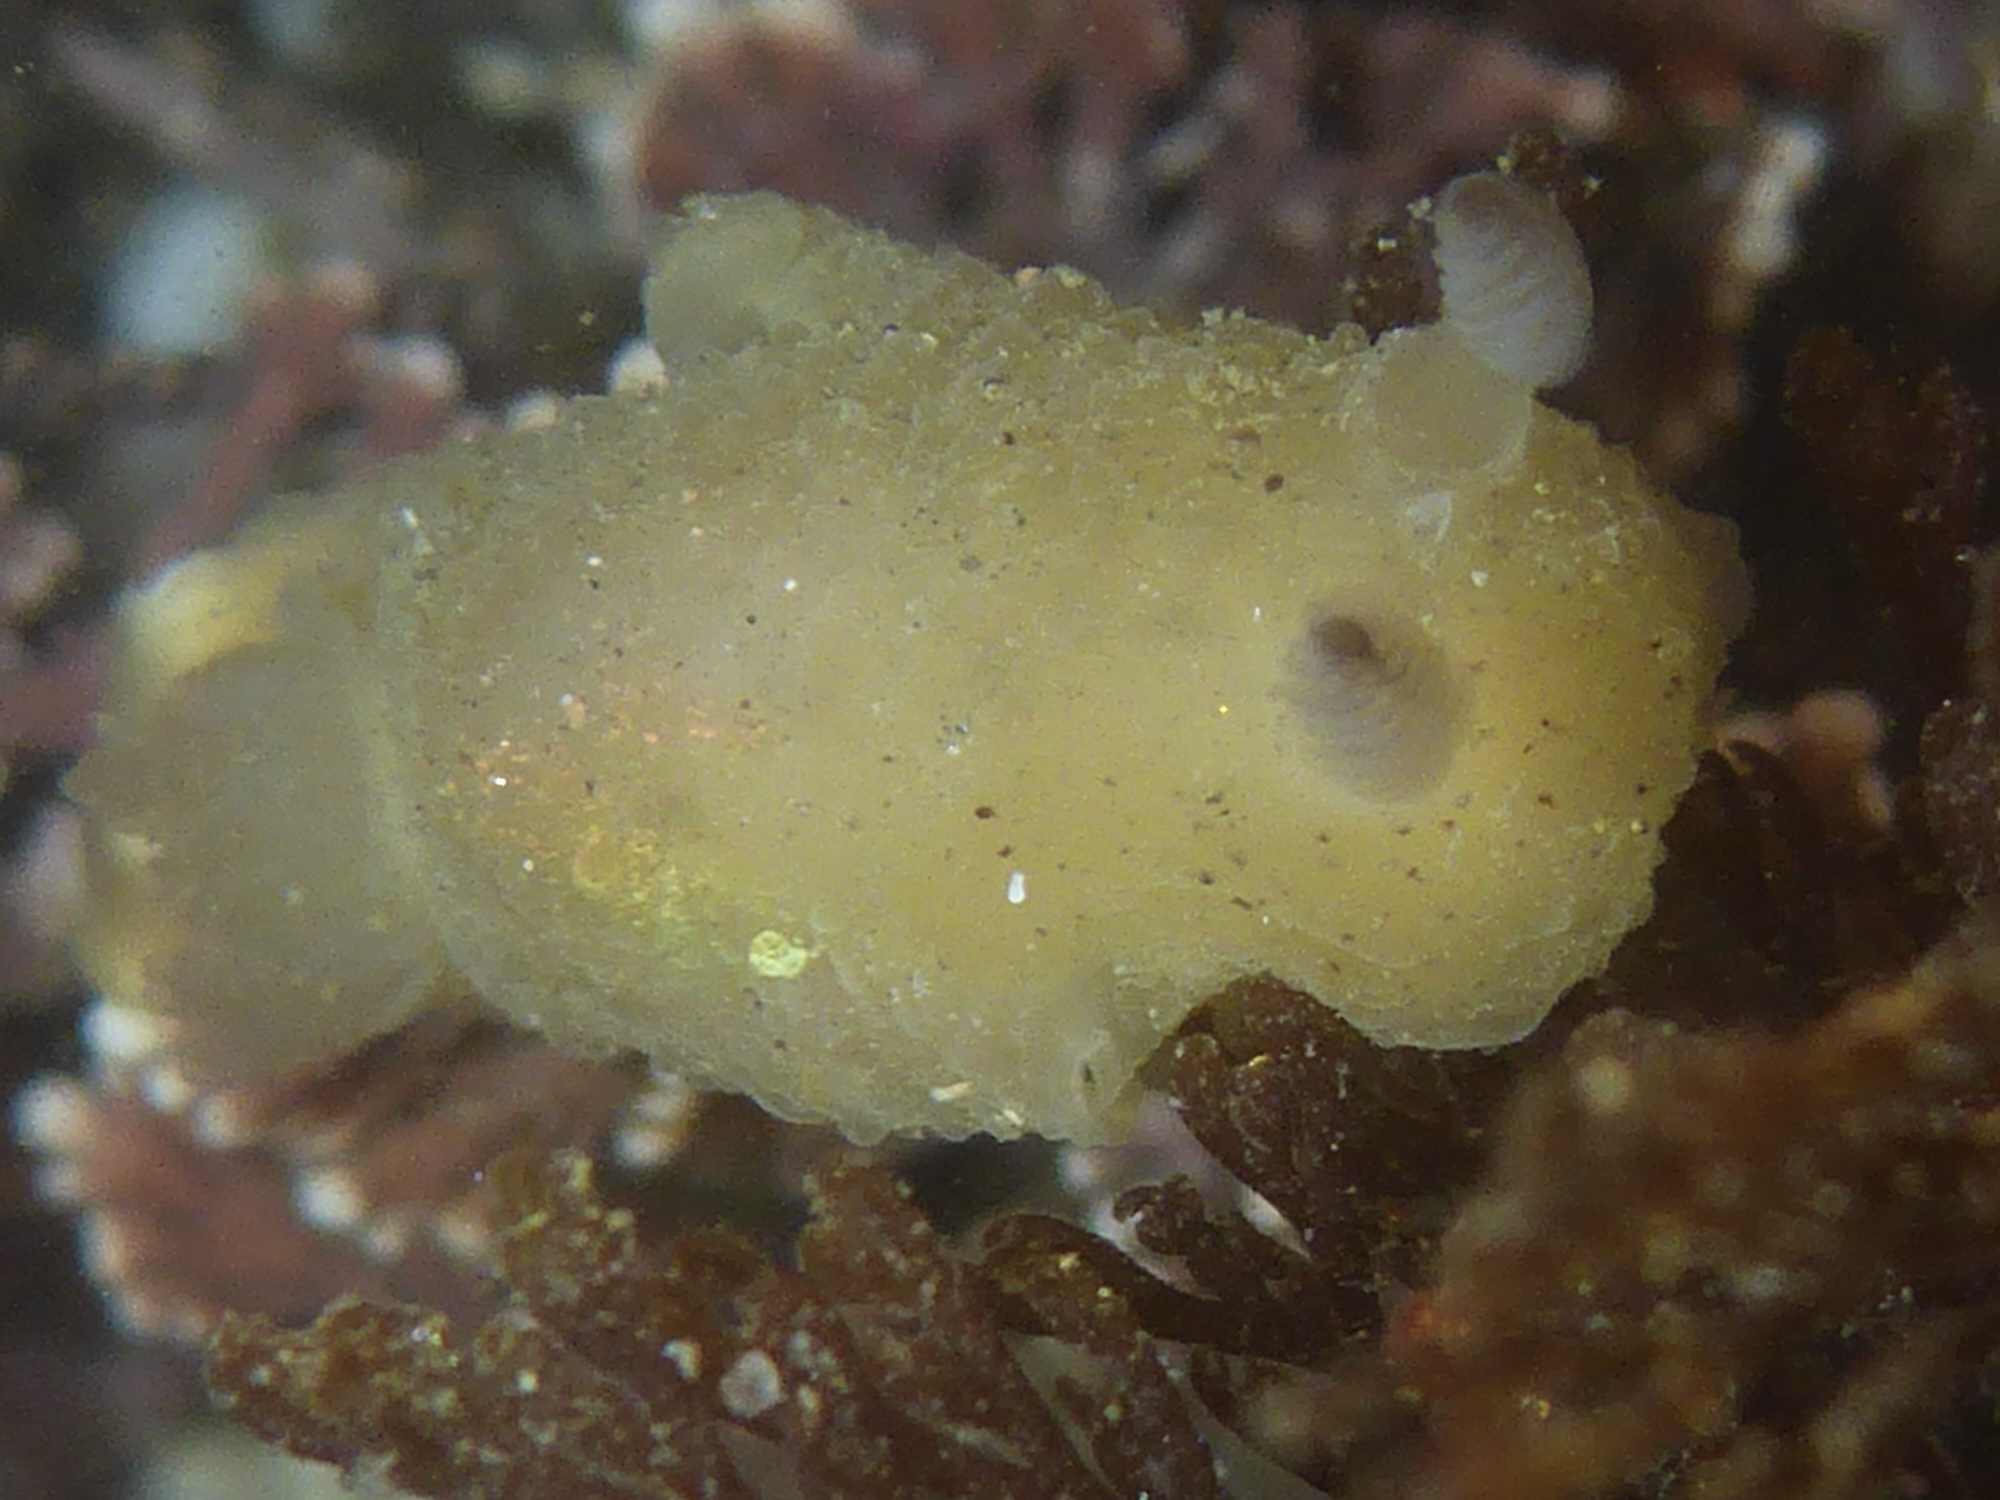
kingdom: Animalia
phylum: Mollusca
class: Gastropoda
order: Nudibranchia
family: Actinocyclidae
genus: Hallaxa
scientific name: Hallaxa chani
